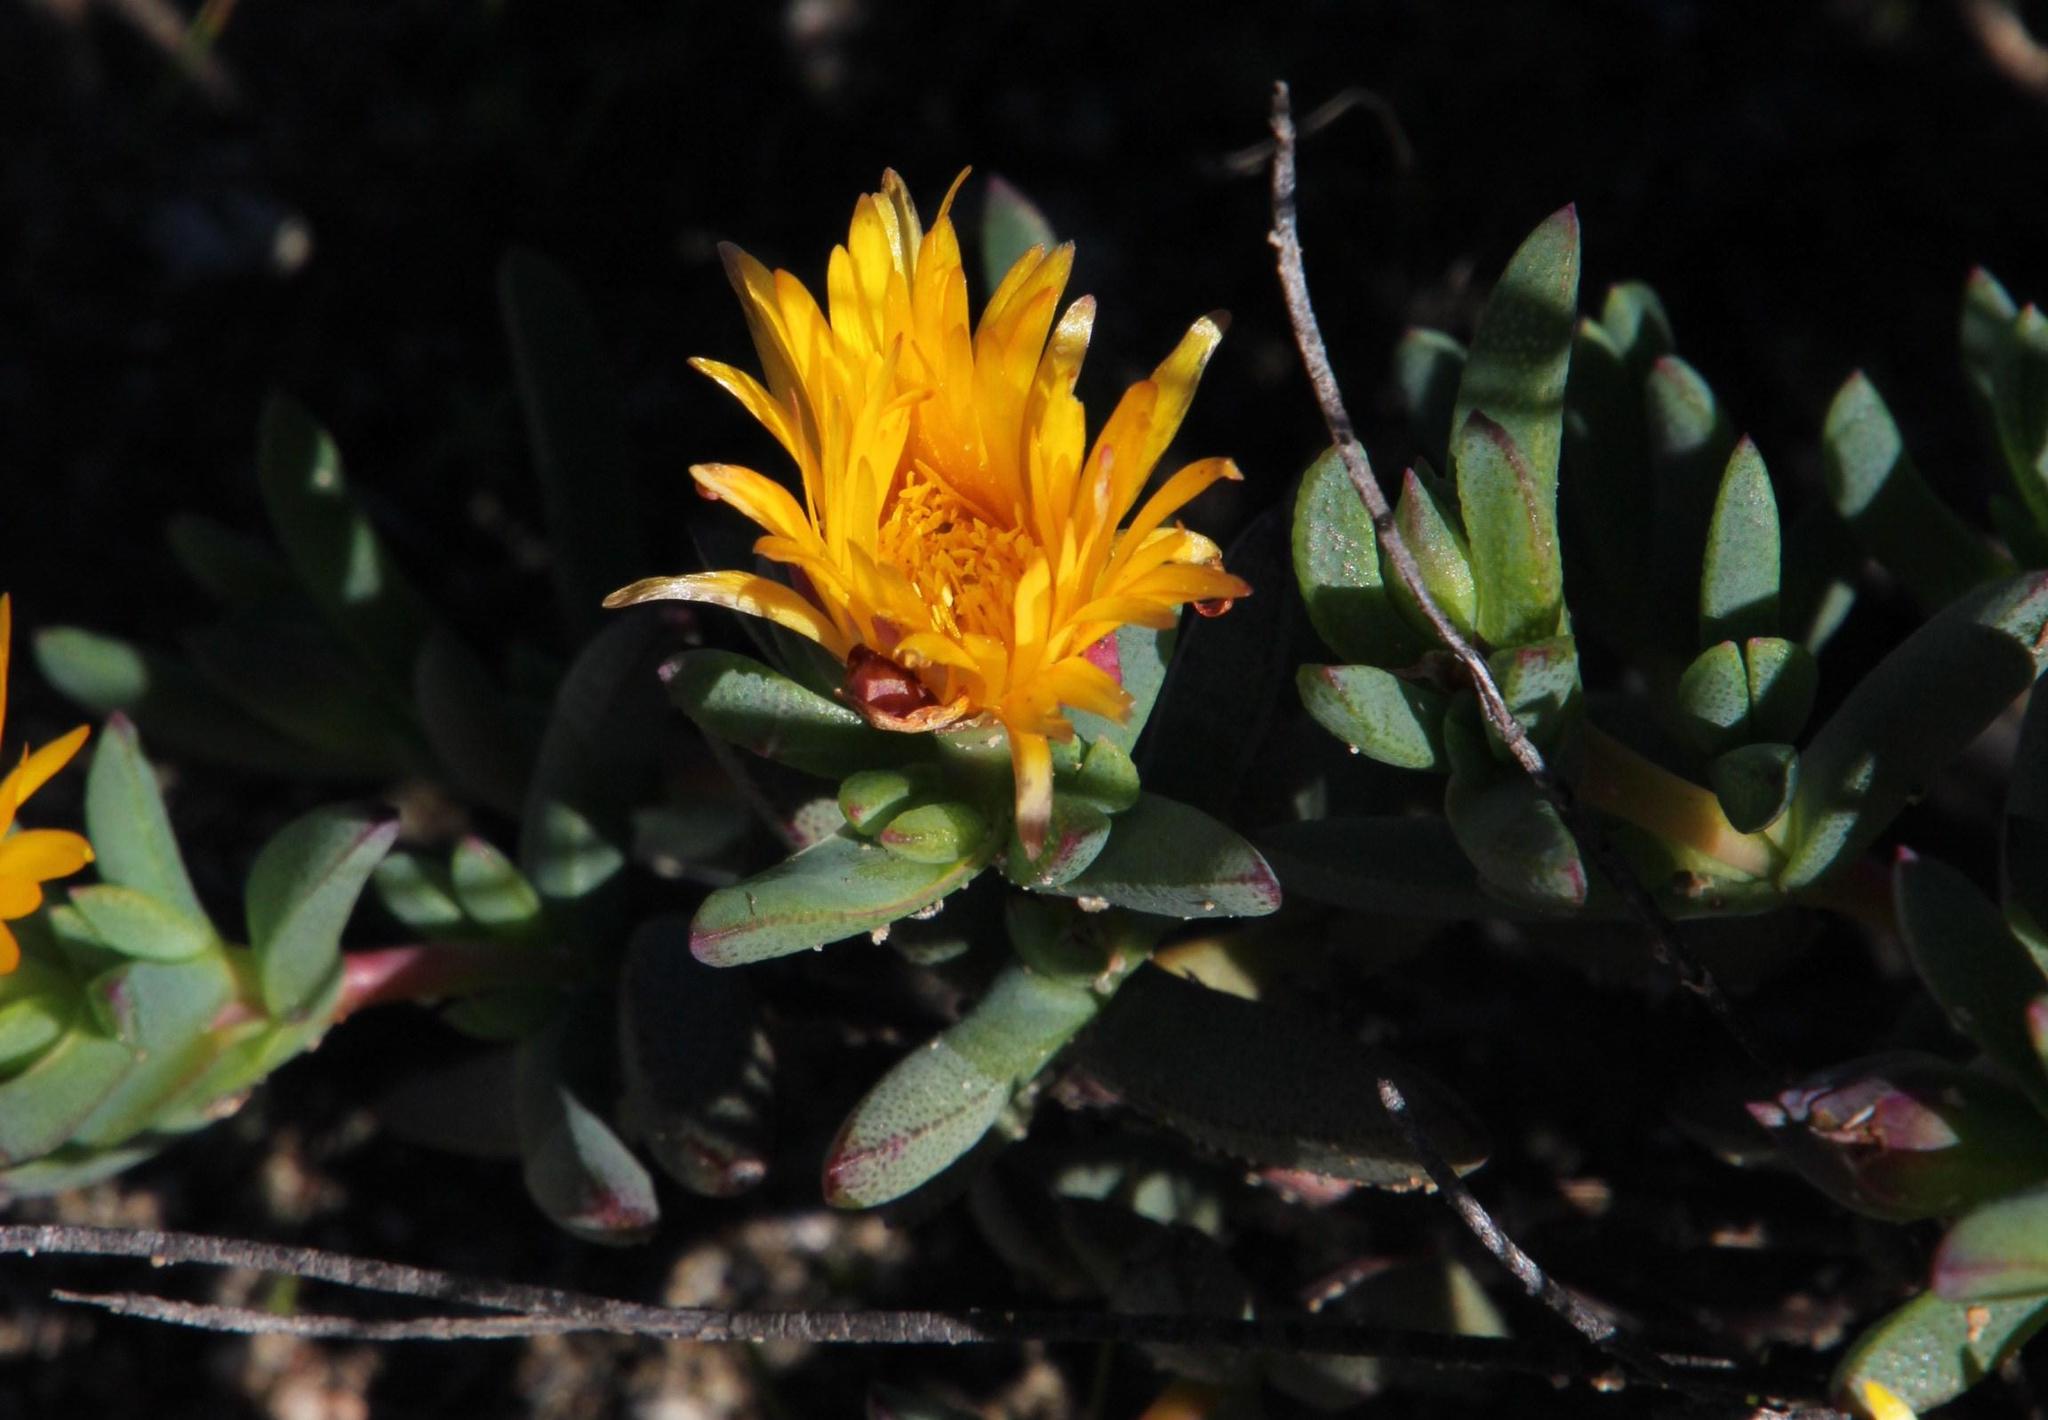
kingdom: Plantae
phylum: Tracheophyta
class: Magnoliopsida
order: Caryophyllales
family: Aizoaceae
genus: Lampranthus
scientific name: Lampranthus glaucus
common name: Noonflower
